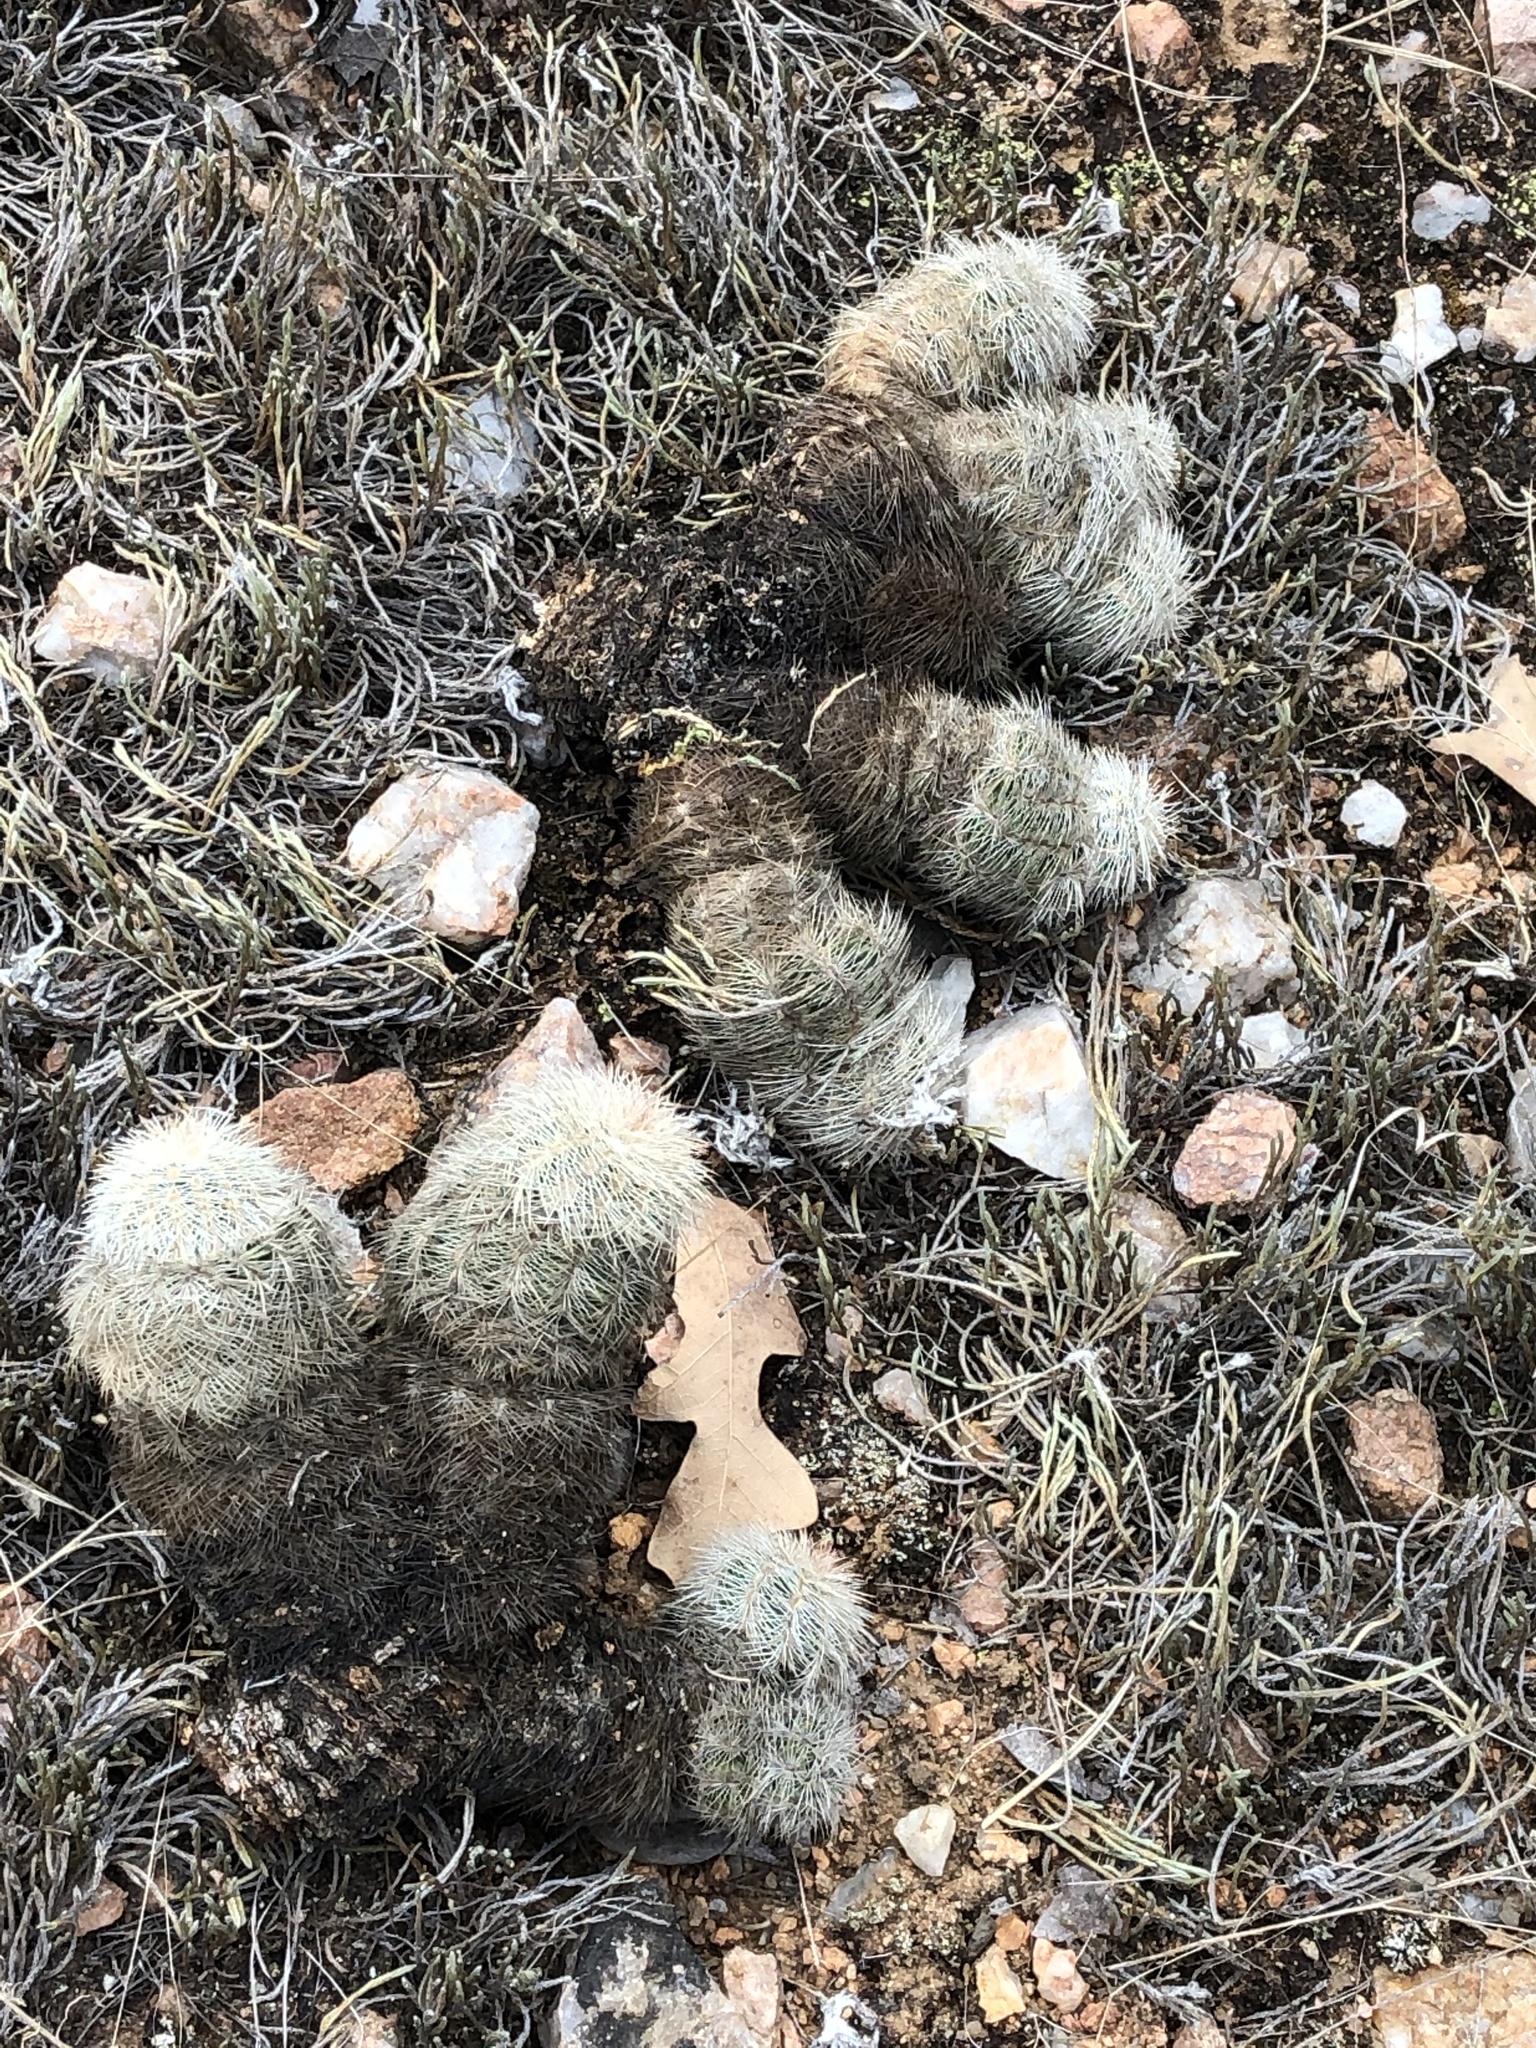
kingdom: Plantae
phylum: Tracheophyta
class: Magnoliopsida
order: Caryophyllales
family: Cactaceae
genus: Echinocereus
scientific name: Echinocereus reichenbachii
